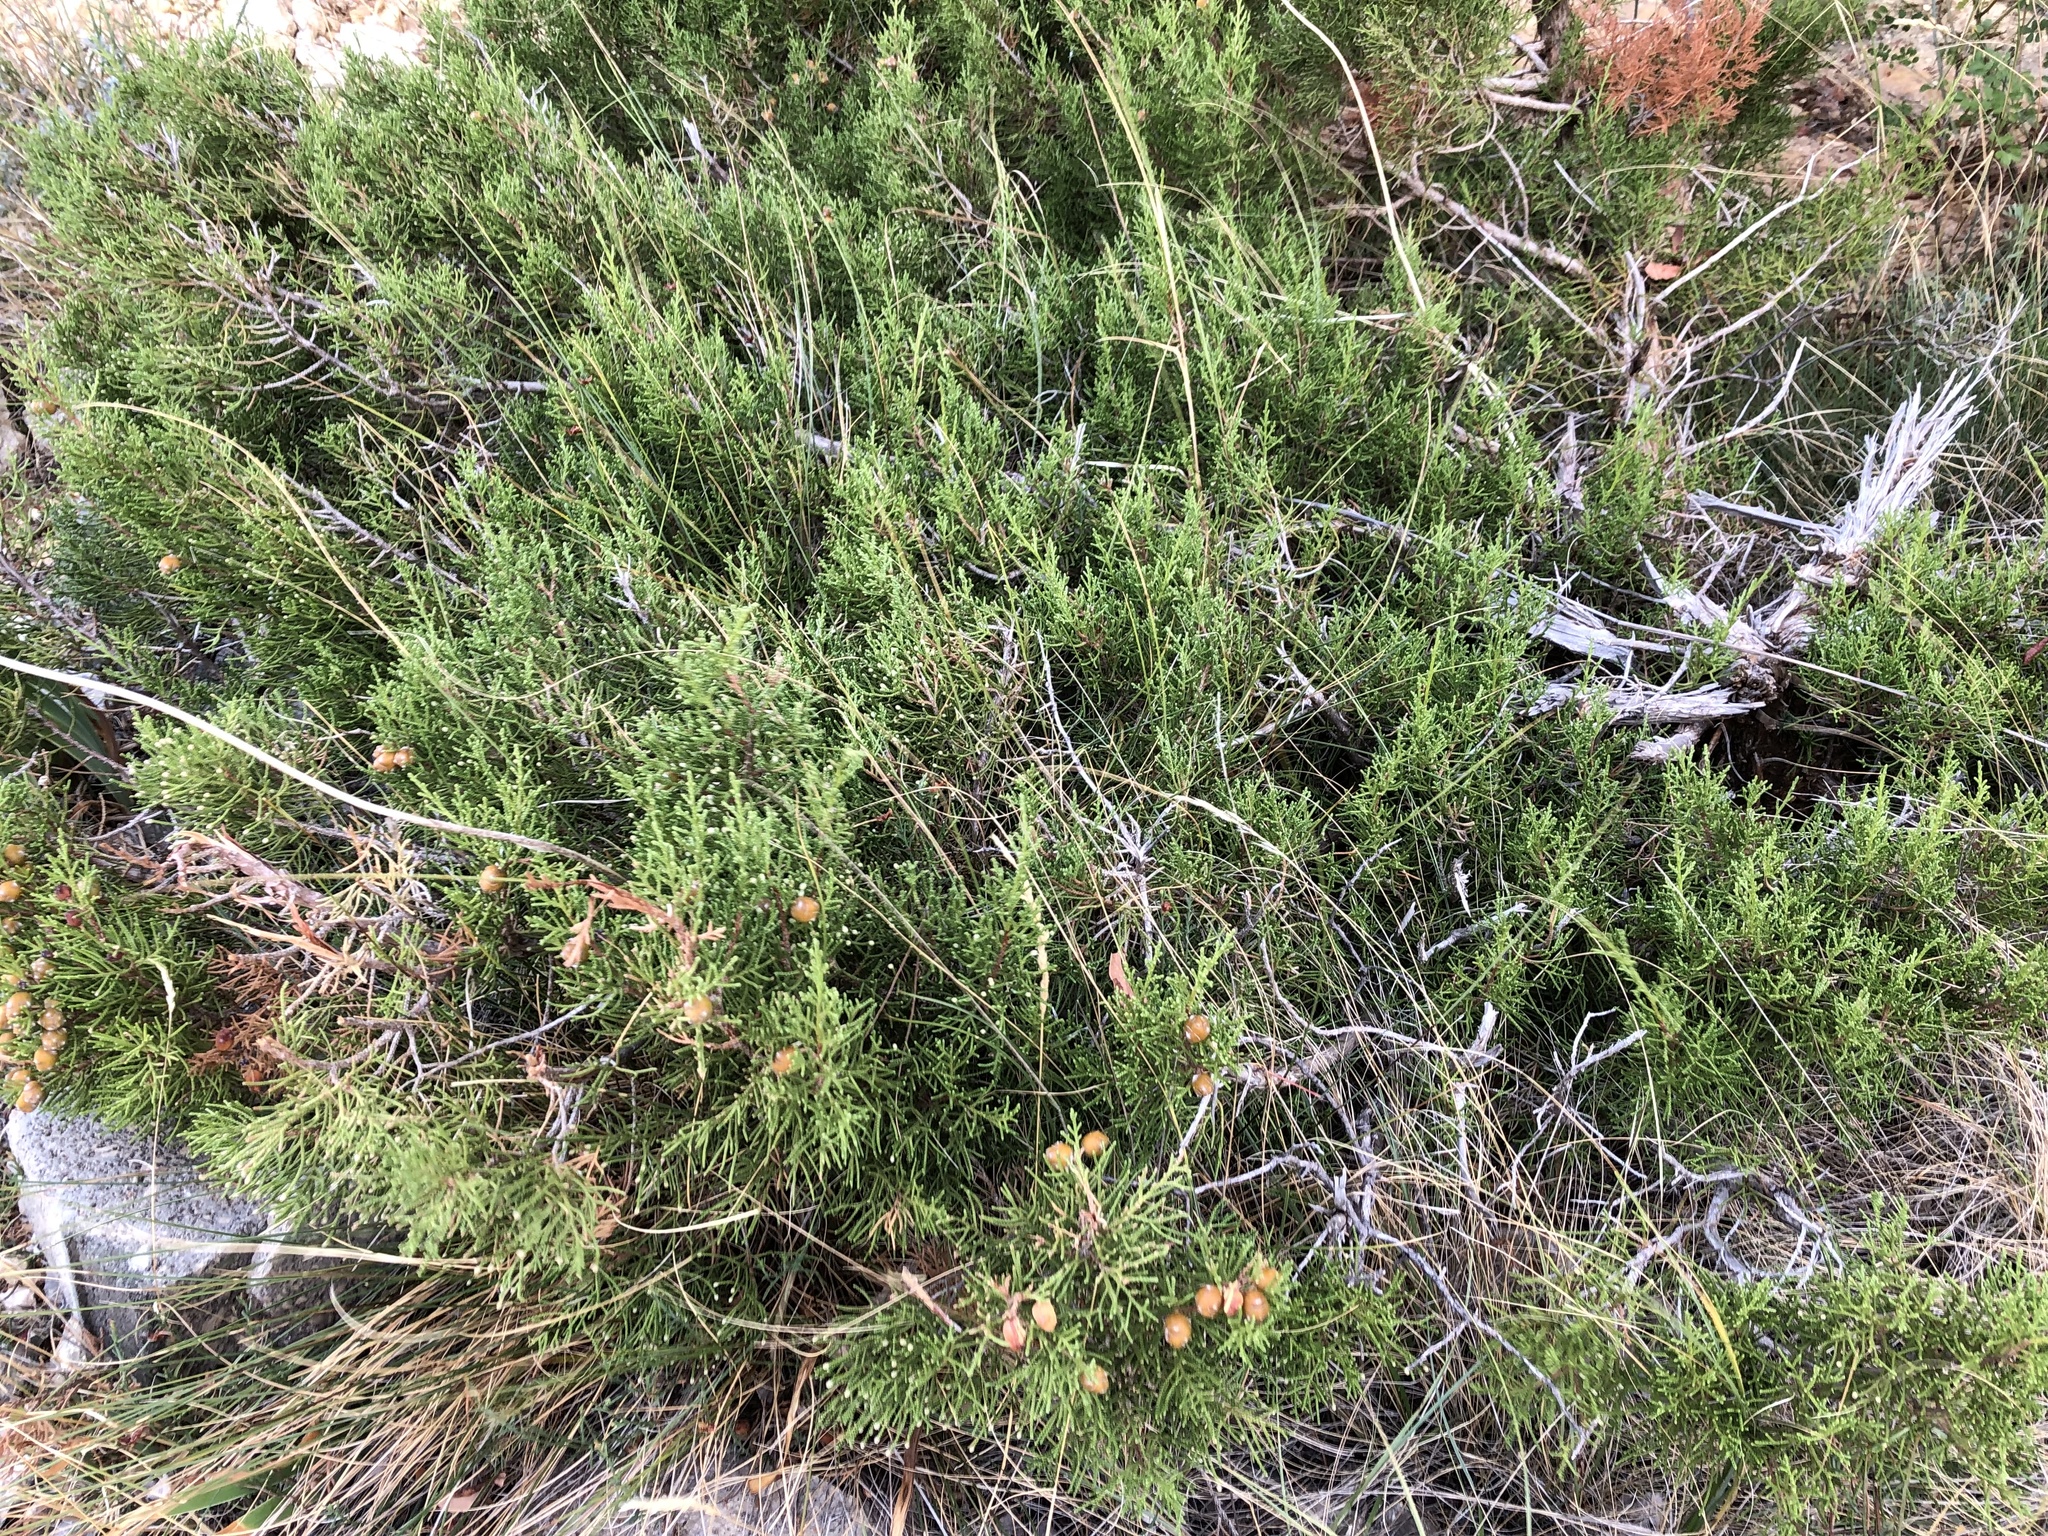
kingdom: Plantae
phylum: Tracheophyta
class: Pinopsida
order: Pinales
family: Cupressaceae
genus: Juniperus
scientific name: Juniperus phoenicea
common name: Phoenician juniper
